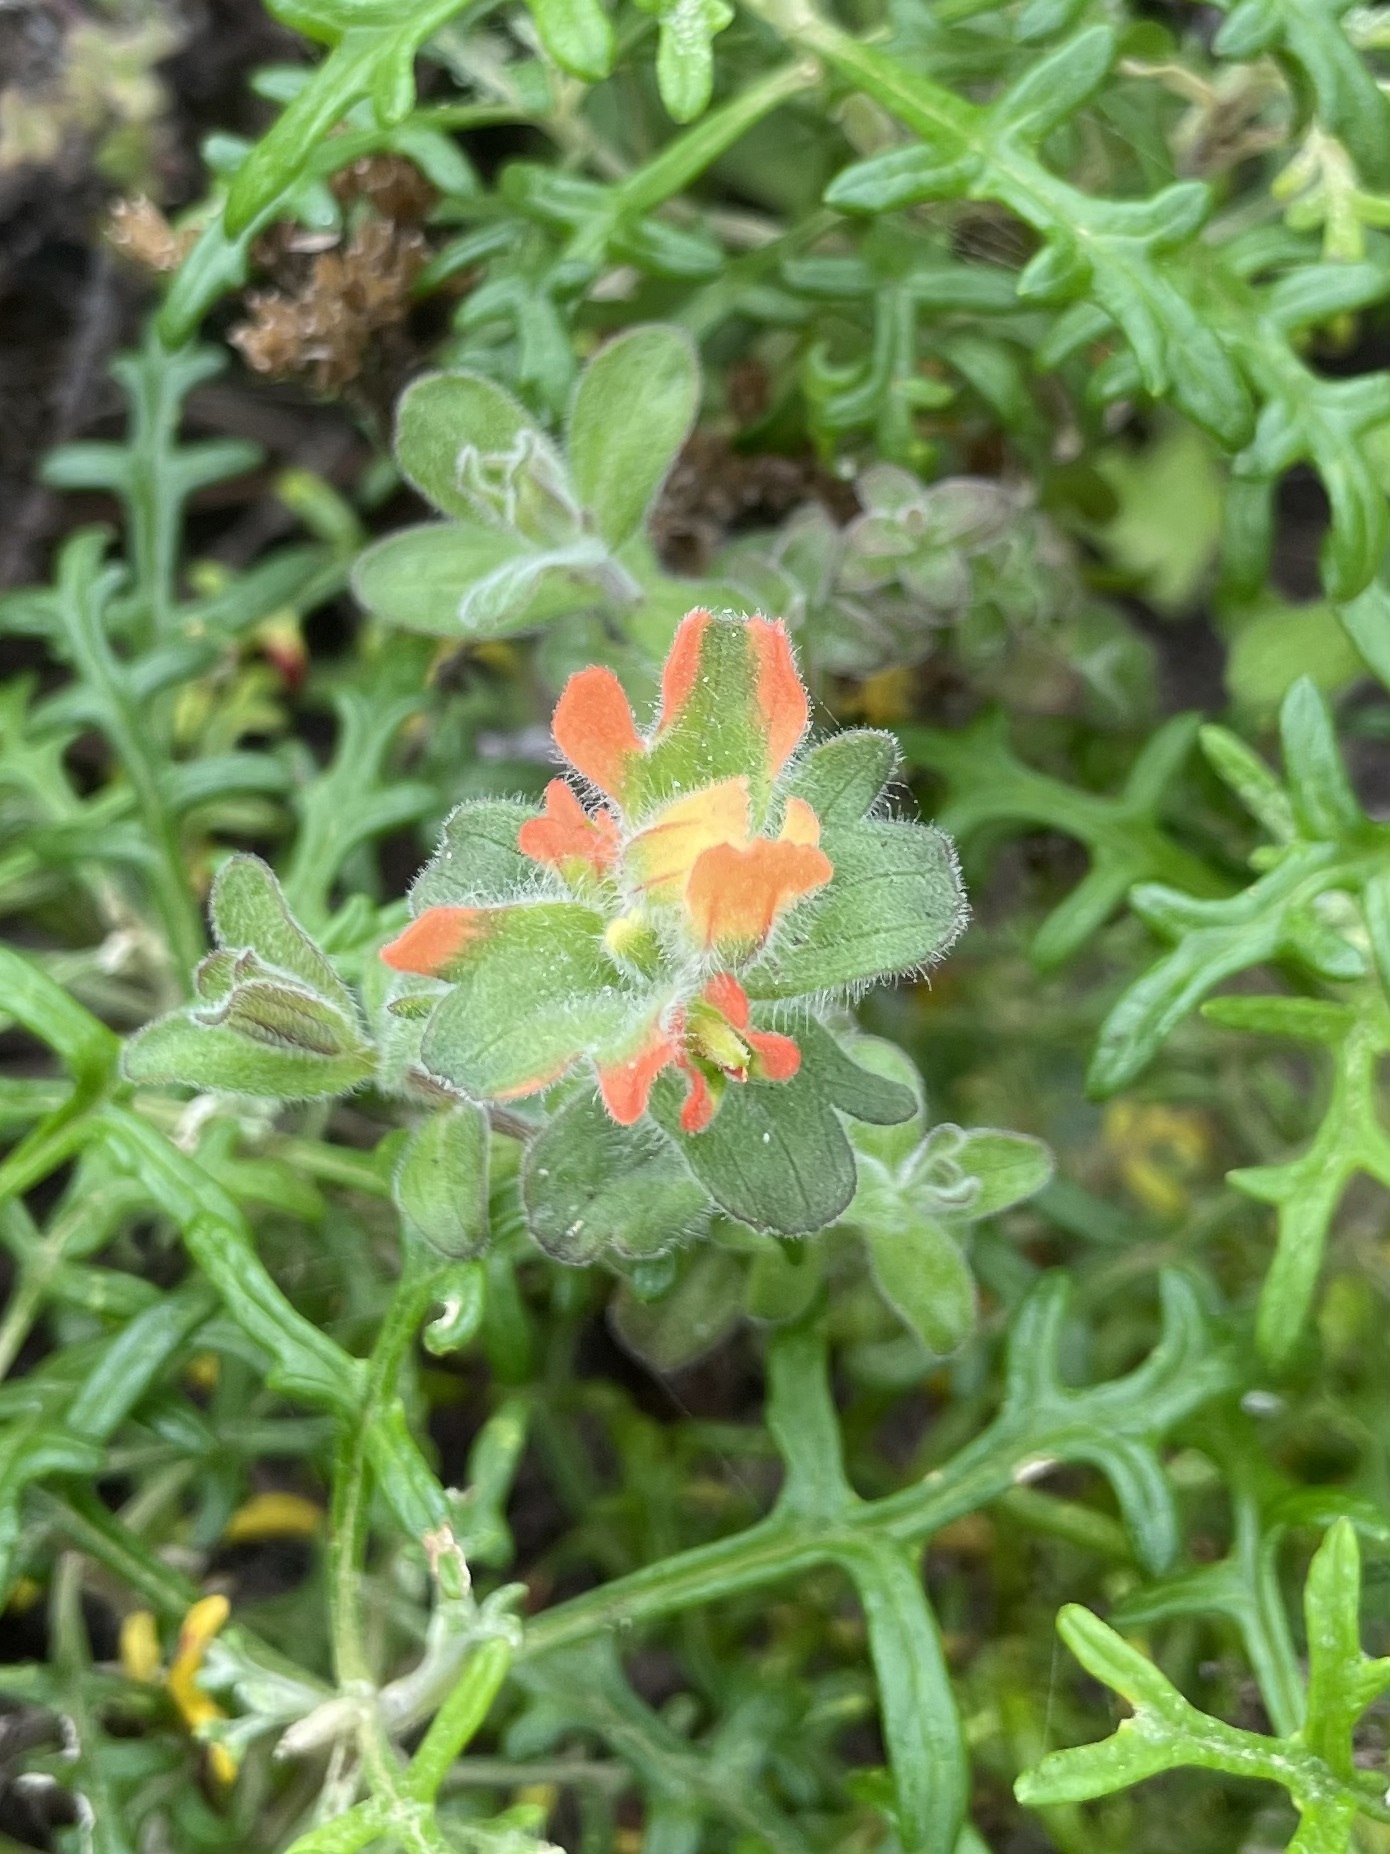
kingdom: Plantae
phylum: Tracheophyta
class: Magnoliopsida
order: Lamiales
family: Orobanchaceae
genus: Castilleja
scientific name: Castilleja latifolia
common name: Monterey indian paintbrush
